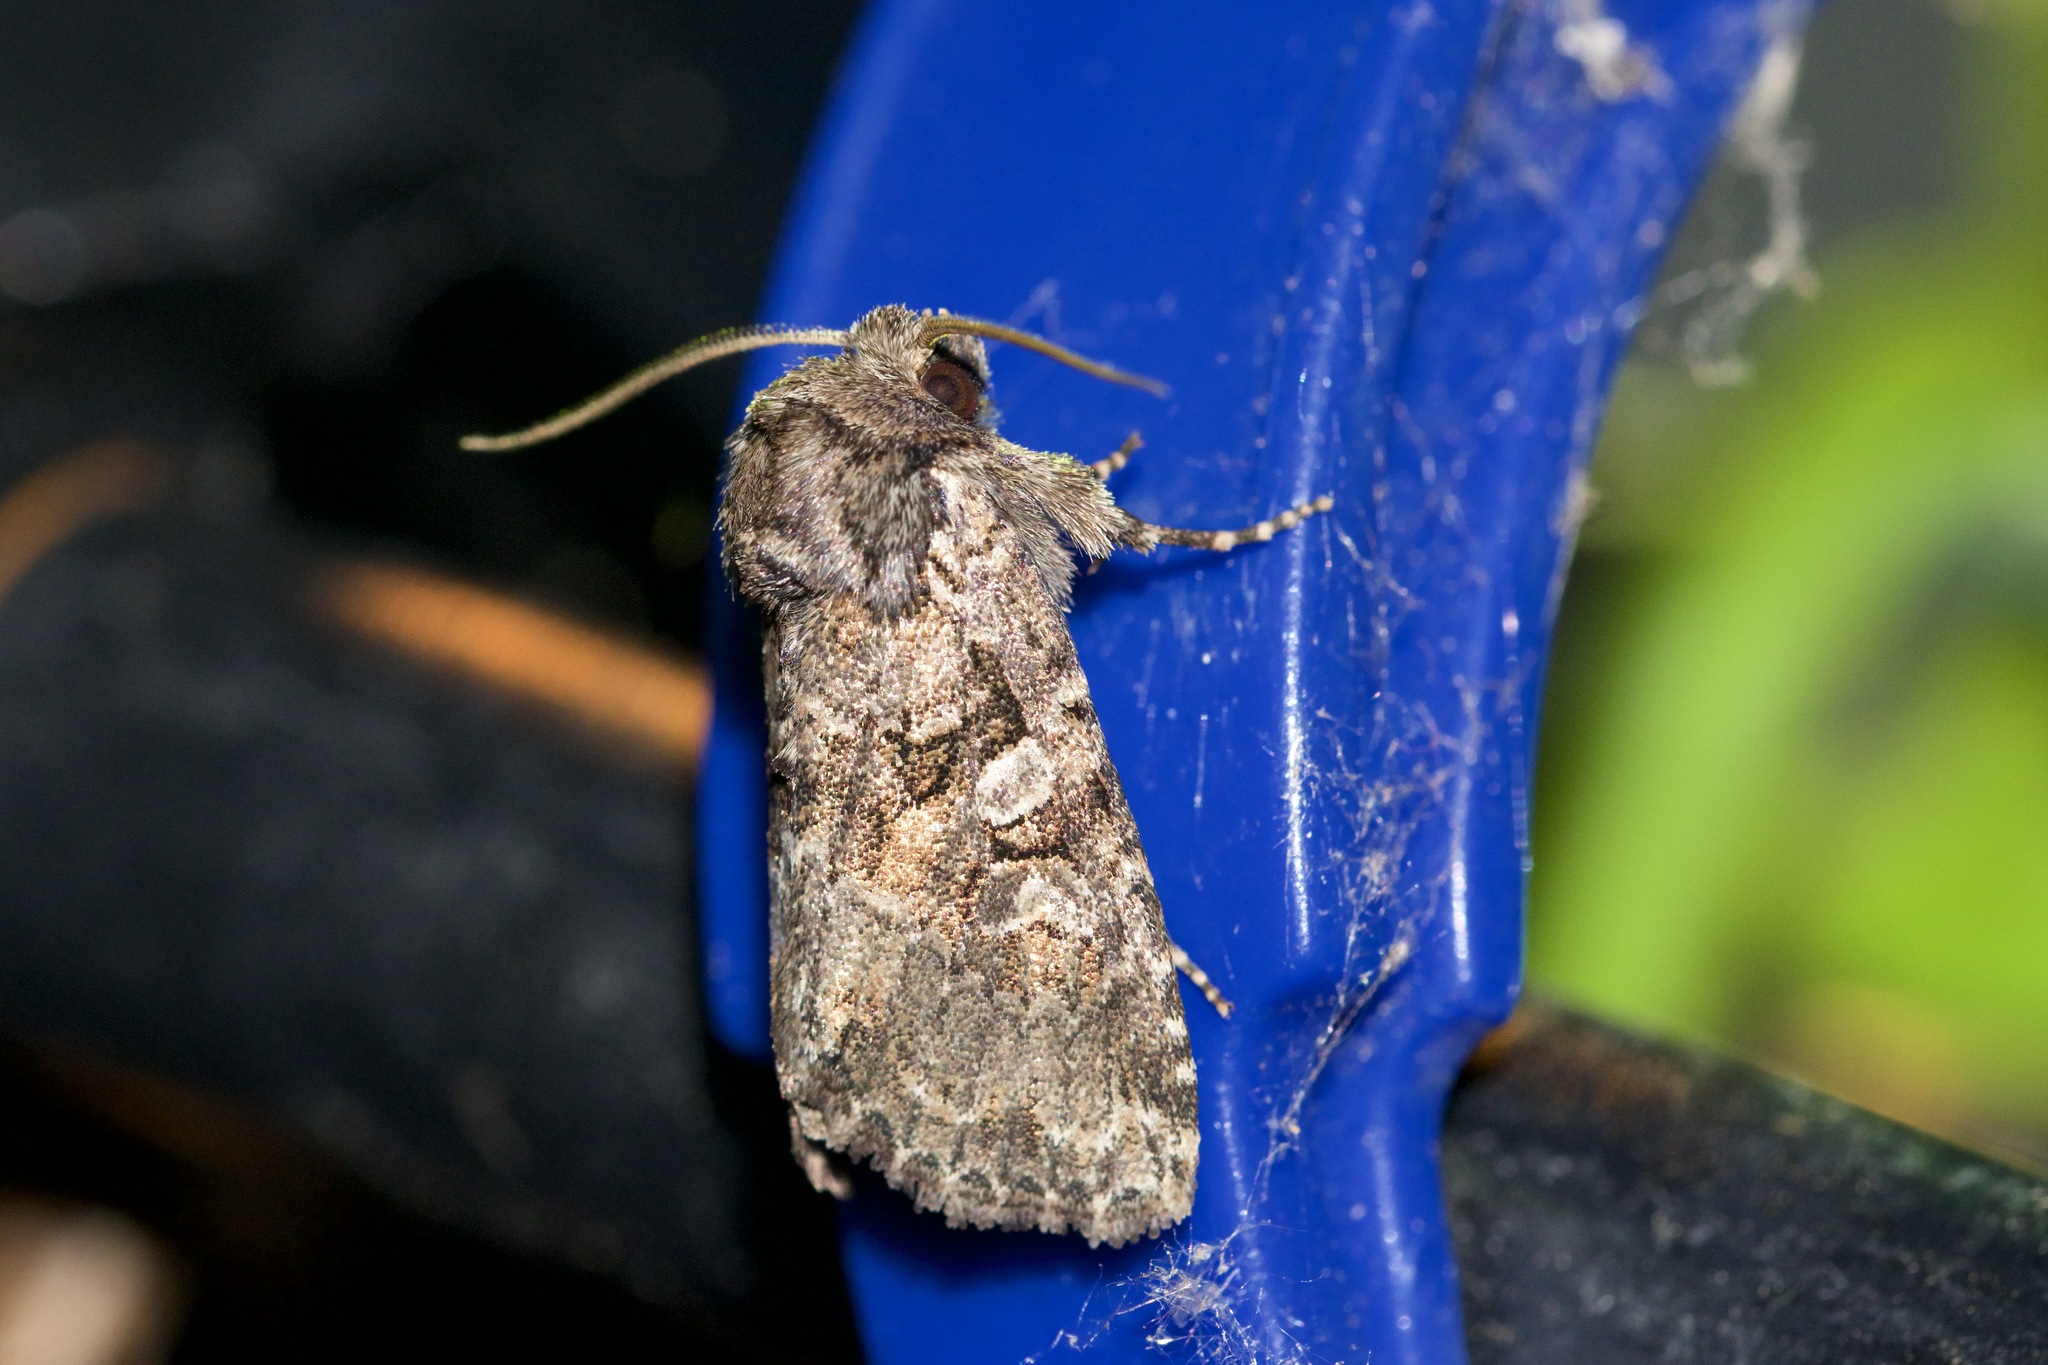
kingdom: Animalia
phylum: Arthropoda
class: Insecta
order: Lepidoptera
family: Noctuidae
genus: Orthodes
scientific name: Orthodes detracta
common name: Disparaged arches moth
